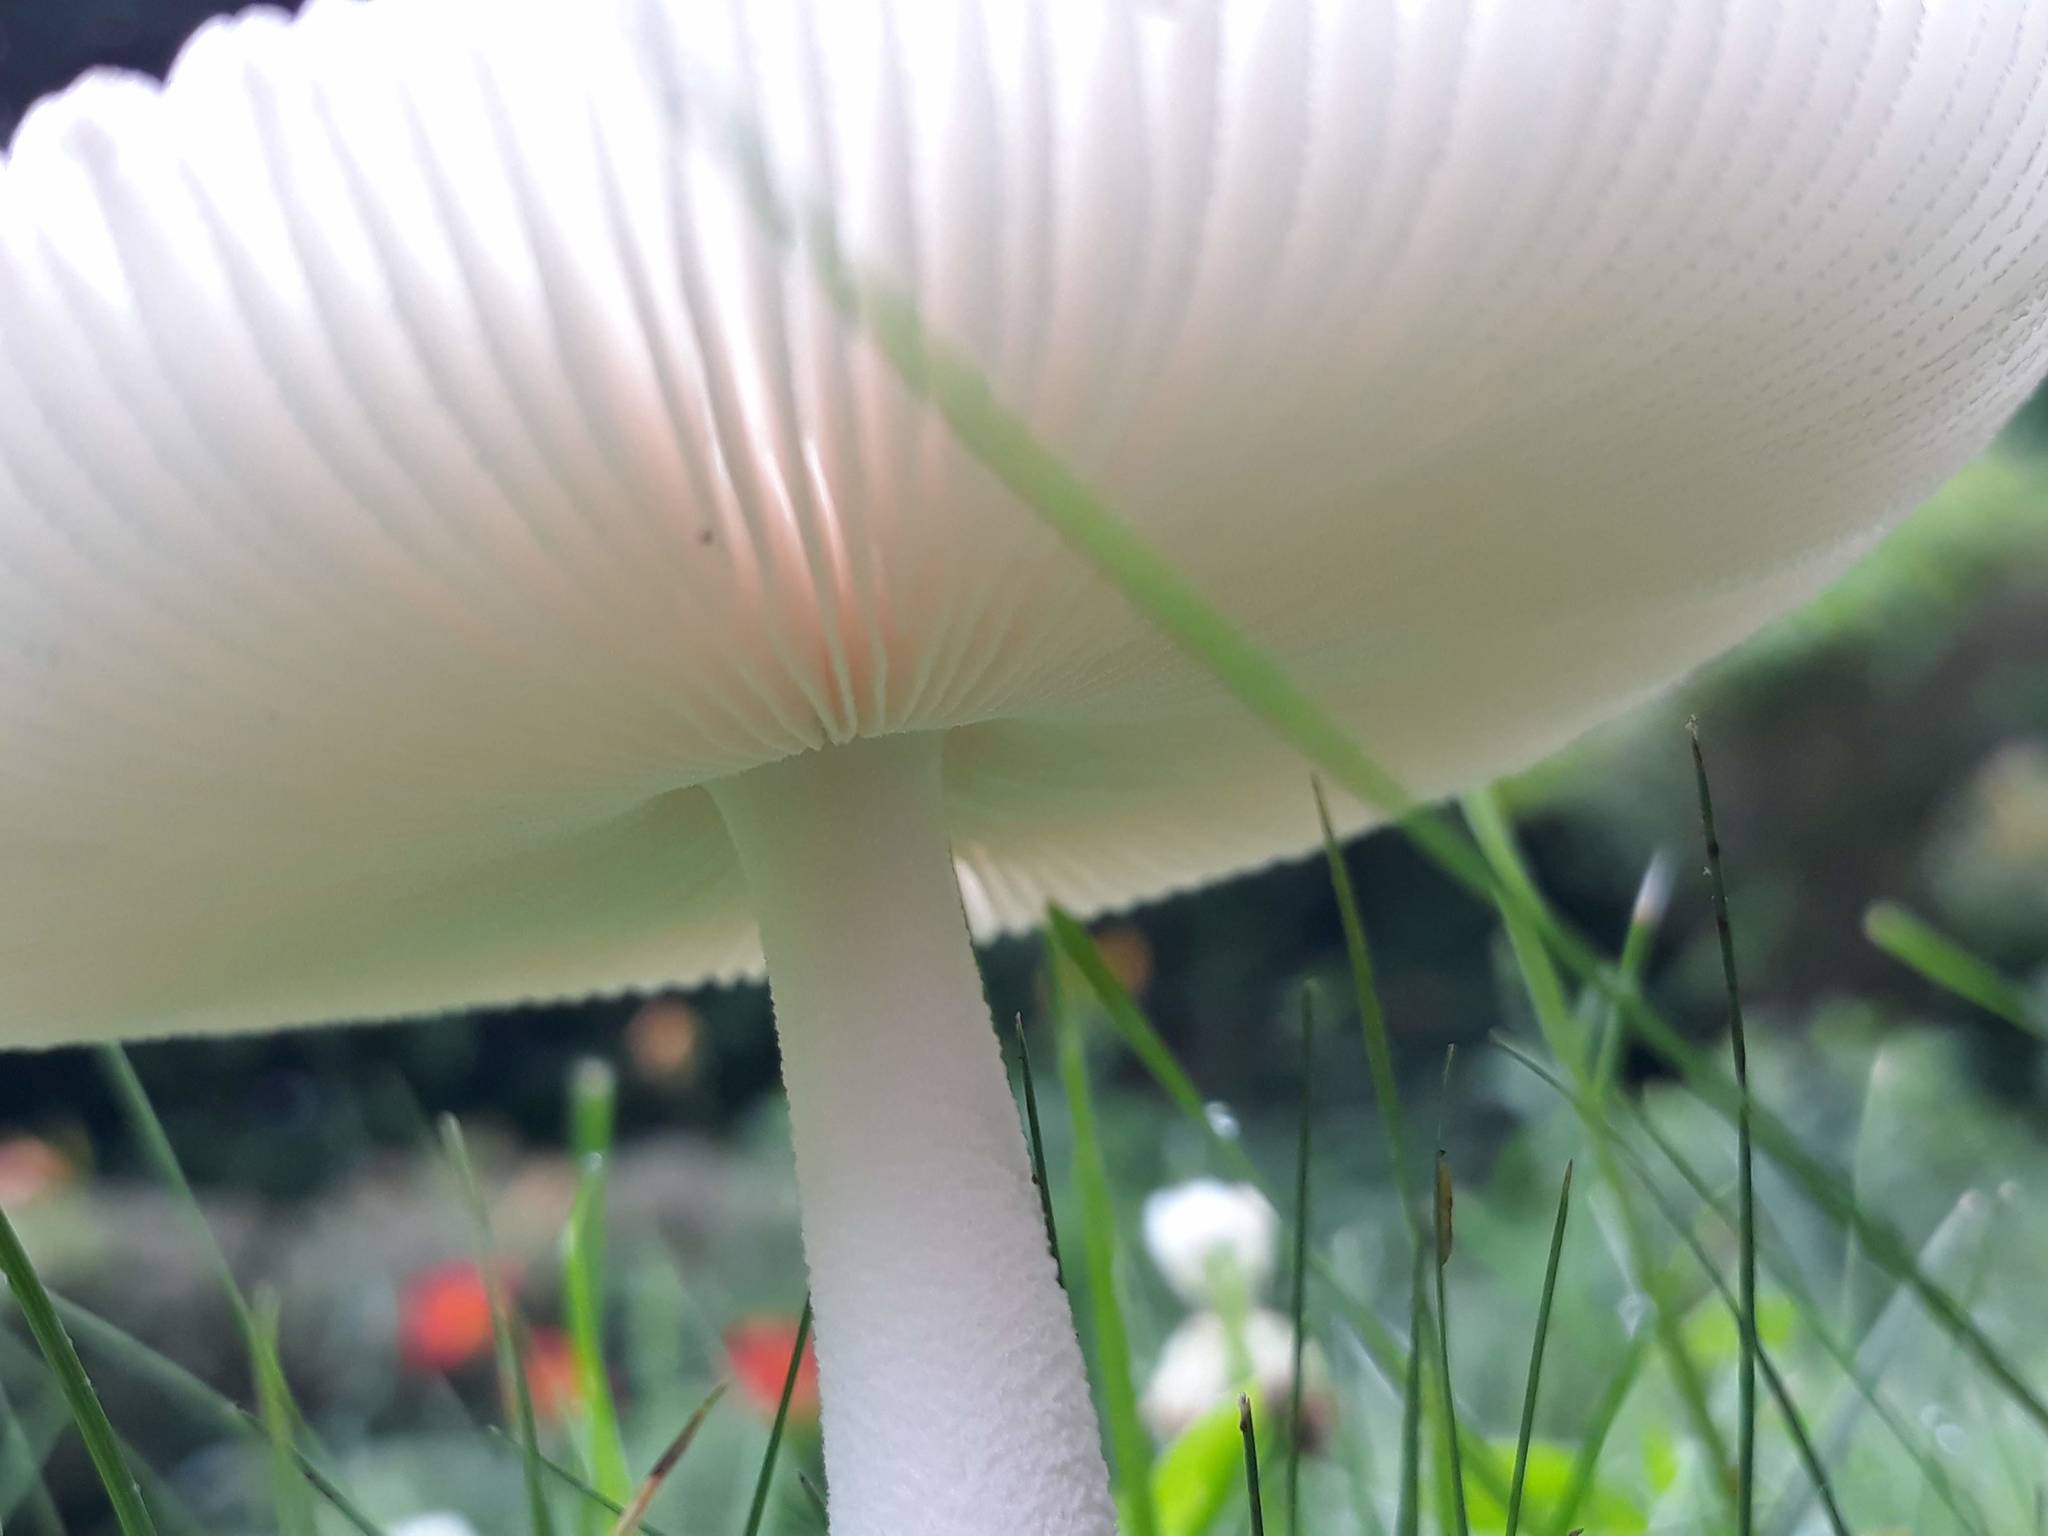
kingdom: Fungi
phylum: Basidiomycota
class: Agaricomycetes
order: Agaricales
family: Amanitaceae
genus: Amanita
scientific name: Amanita
